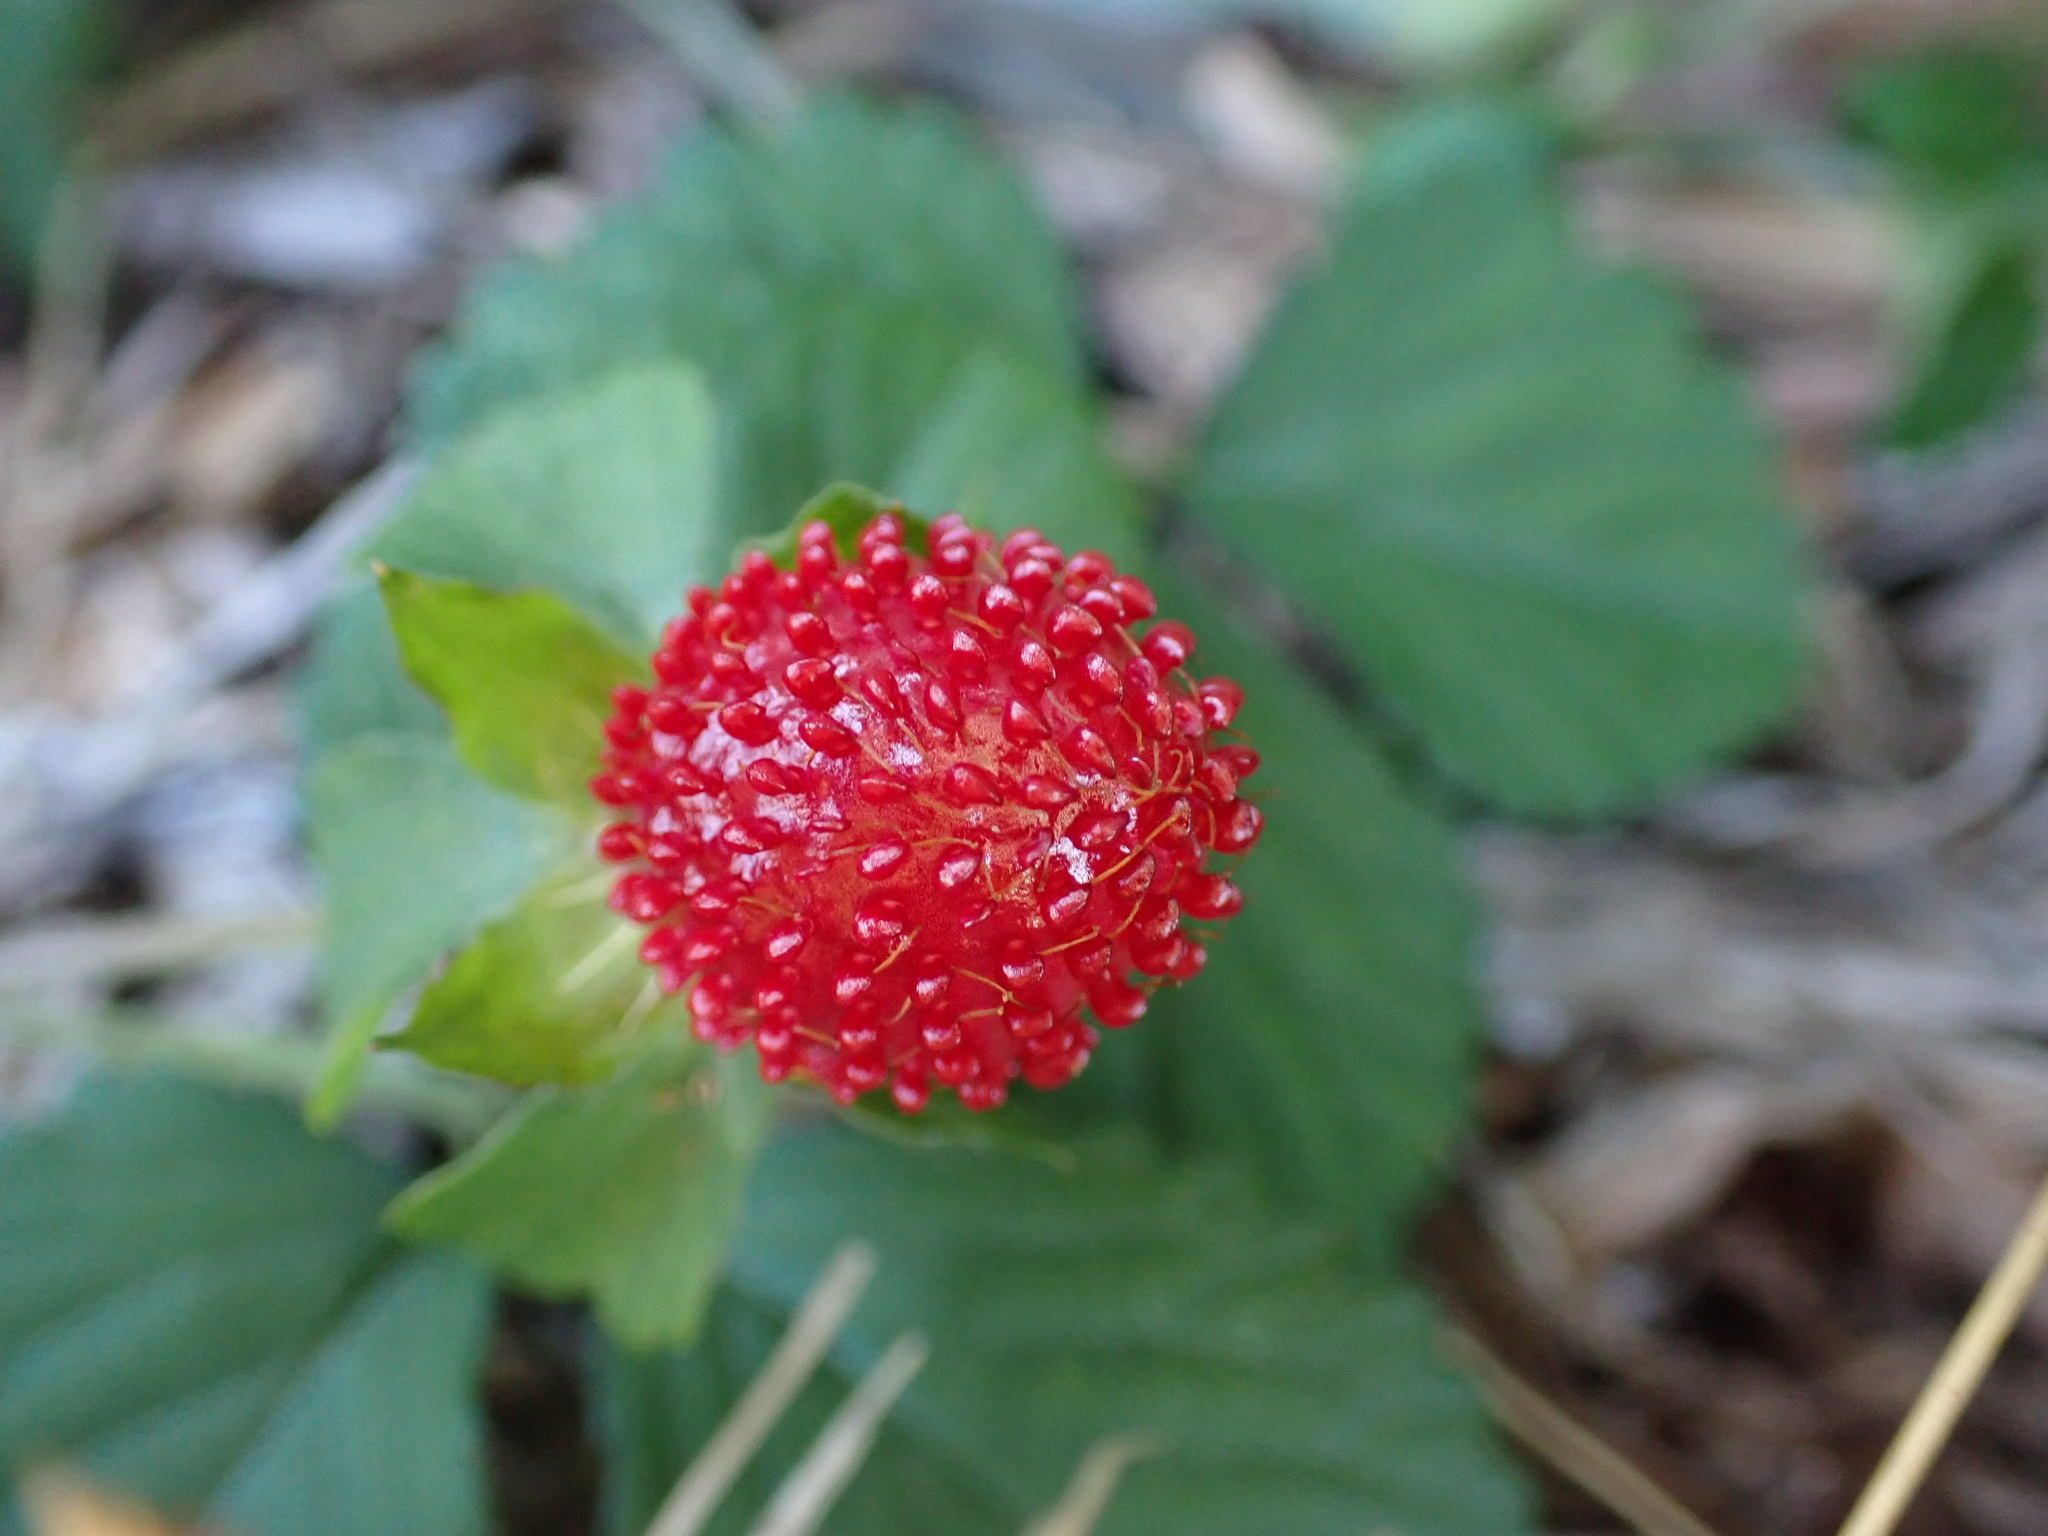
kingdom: Plantae
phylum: Tracheophyta
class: Magnoliopsida
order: Rosales
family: Rosaceae
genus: Potentilla
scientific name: Potentilla indica
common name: Yellow-flowered strawberry
